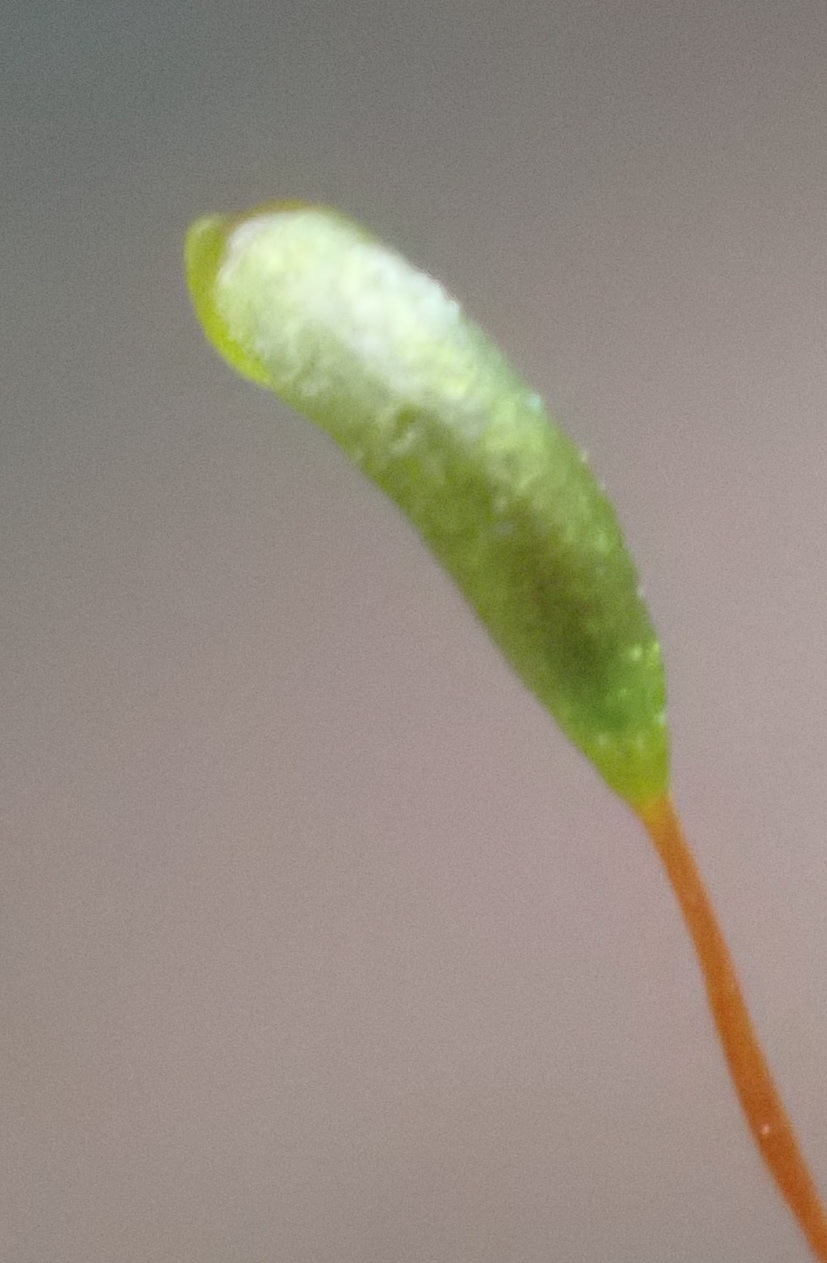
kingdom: Plantae
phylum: Bryophyta
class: Bryopsida
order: Hypnales
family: Leskeaceae
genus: Pseudoleskeopsis
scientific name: Pseudoleskeopsis claviramea
